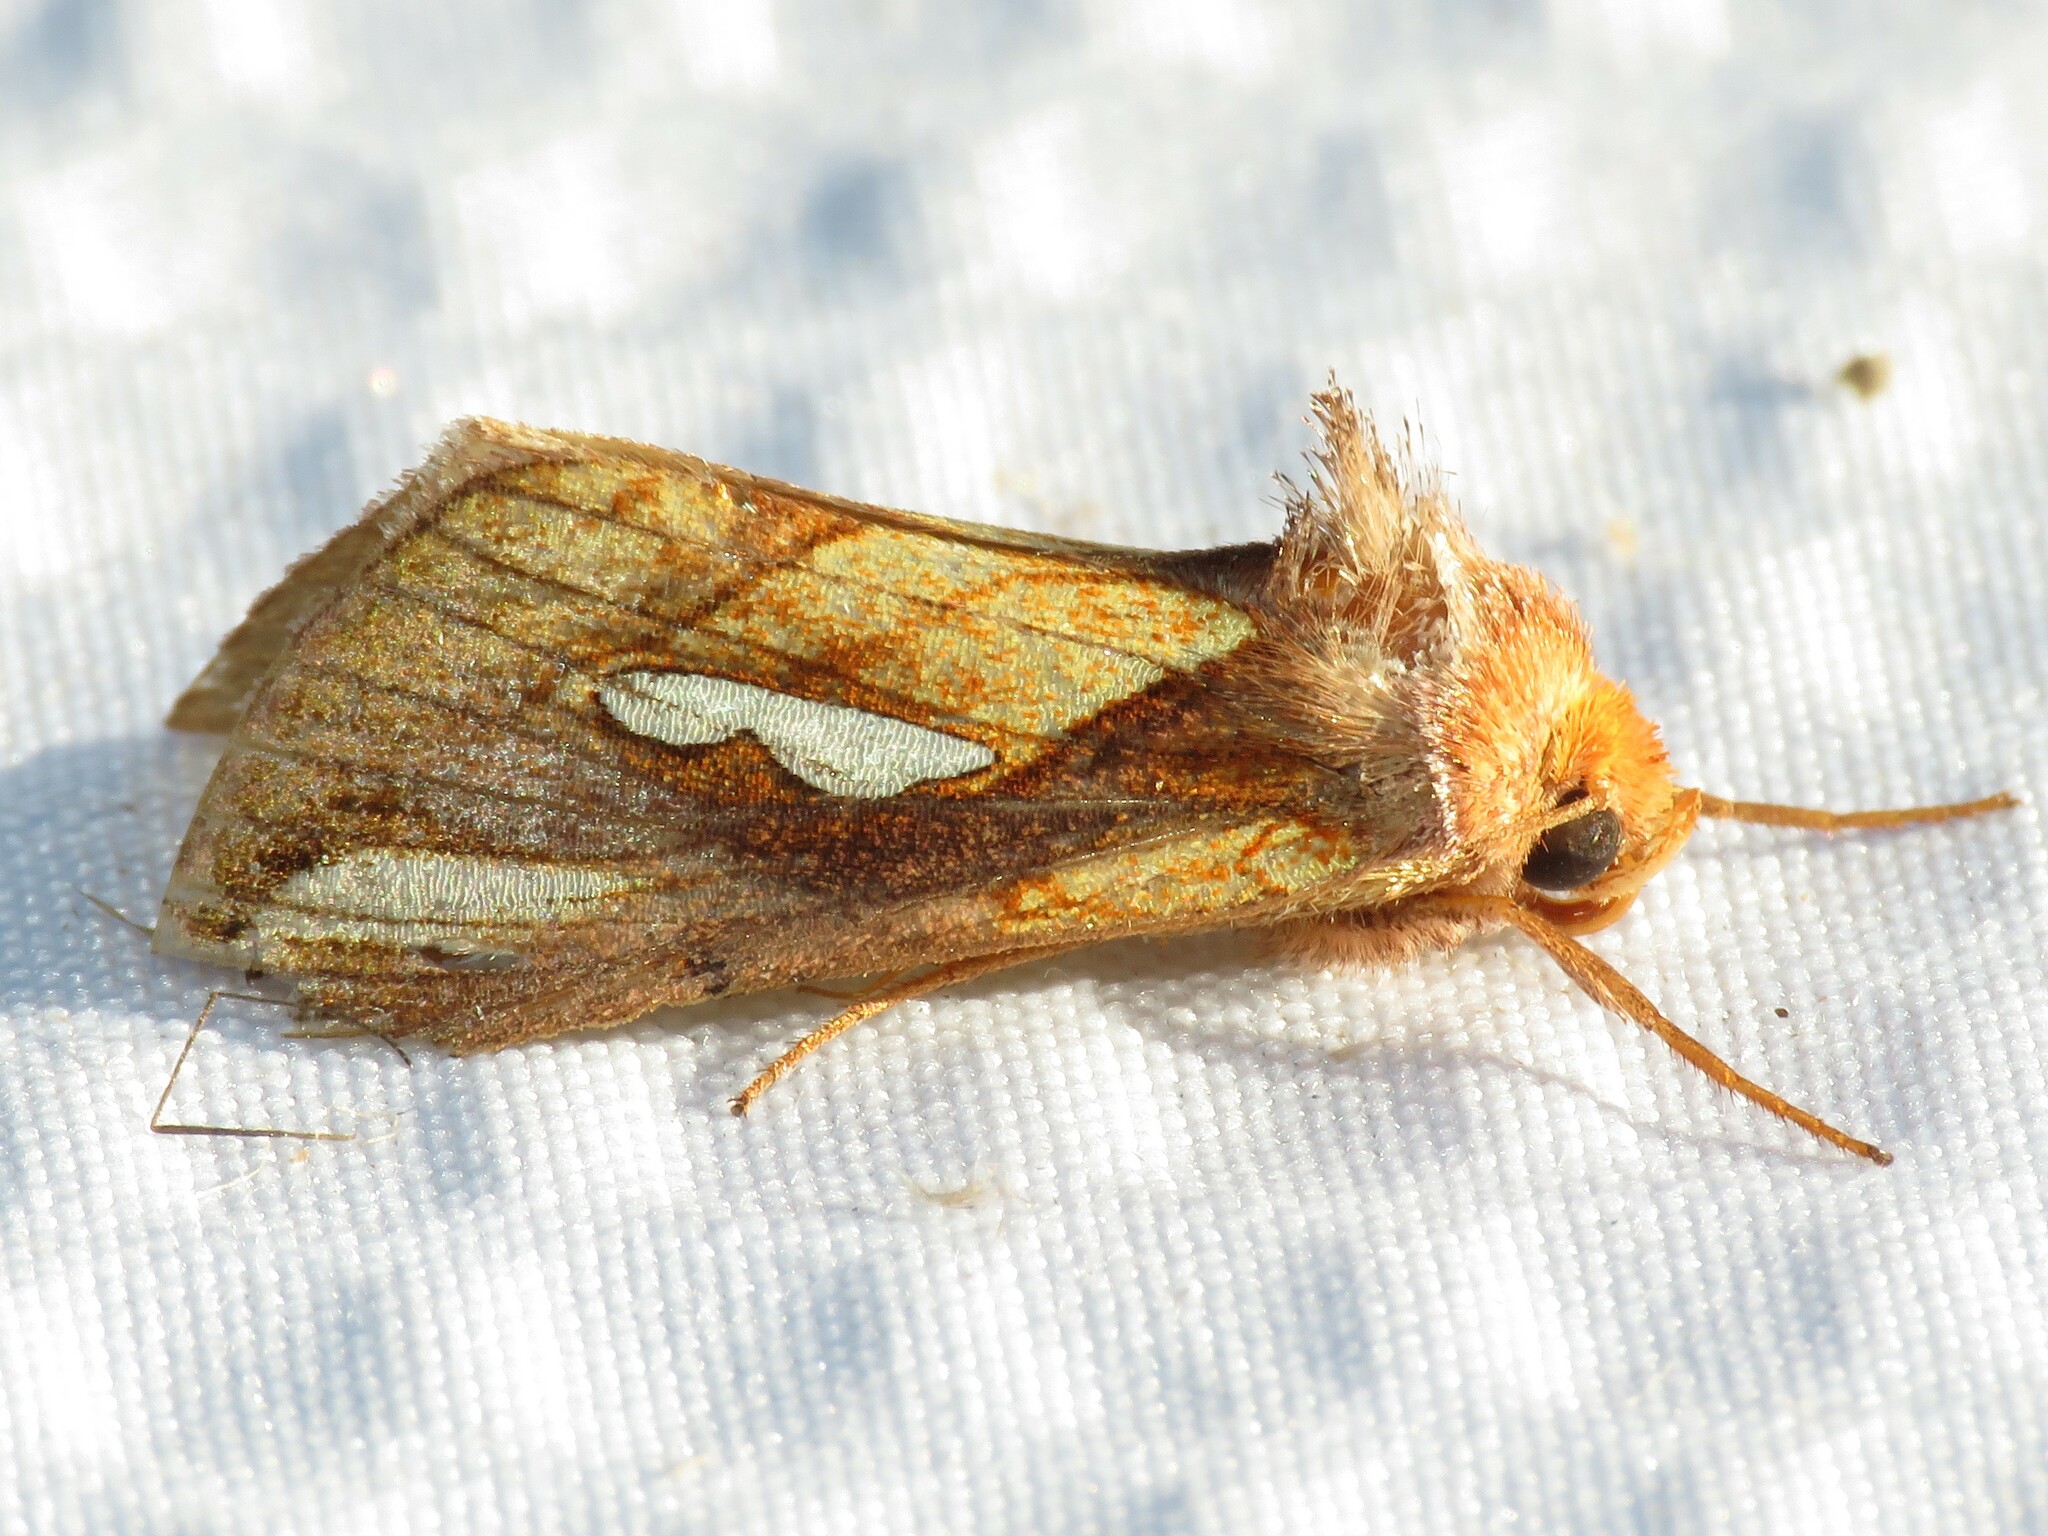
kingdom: Animalia
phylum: Arthropoda
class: Insecta
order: Lepidoptera
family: Noctuidae
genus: Plusia
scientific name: Plusia contexta
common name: Connected looper moth
